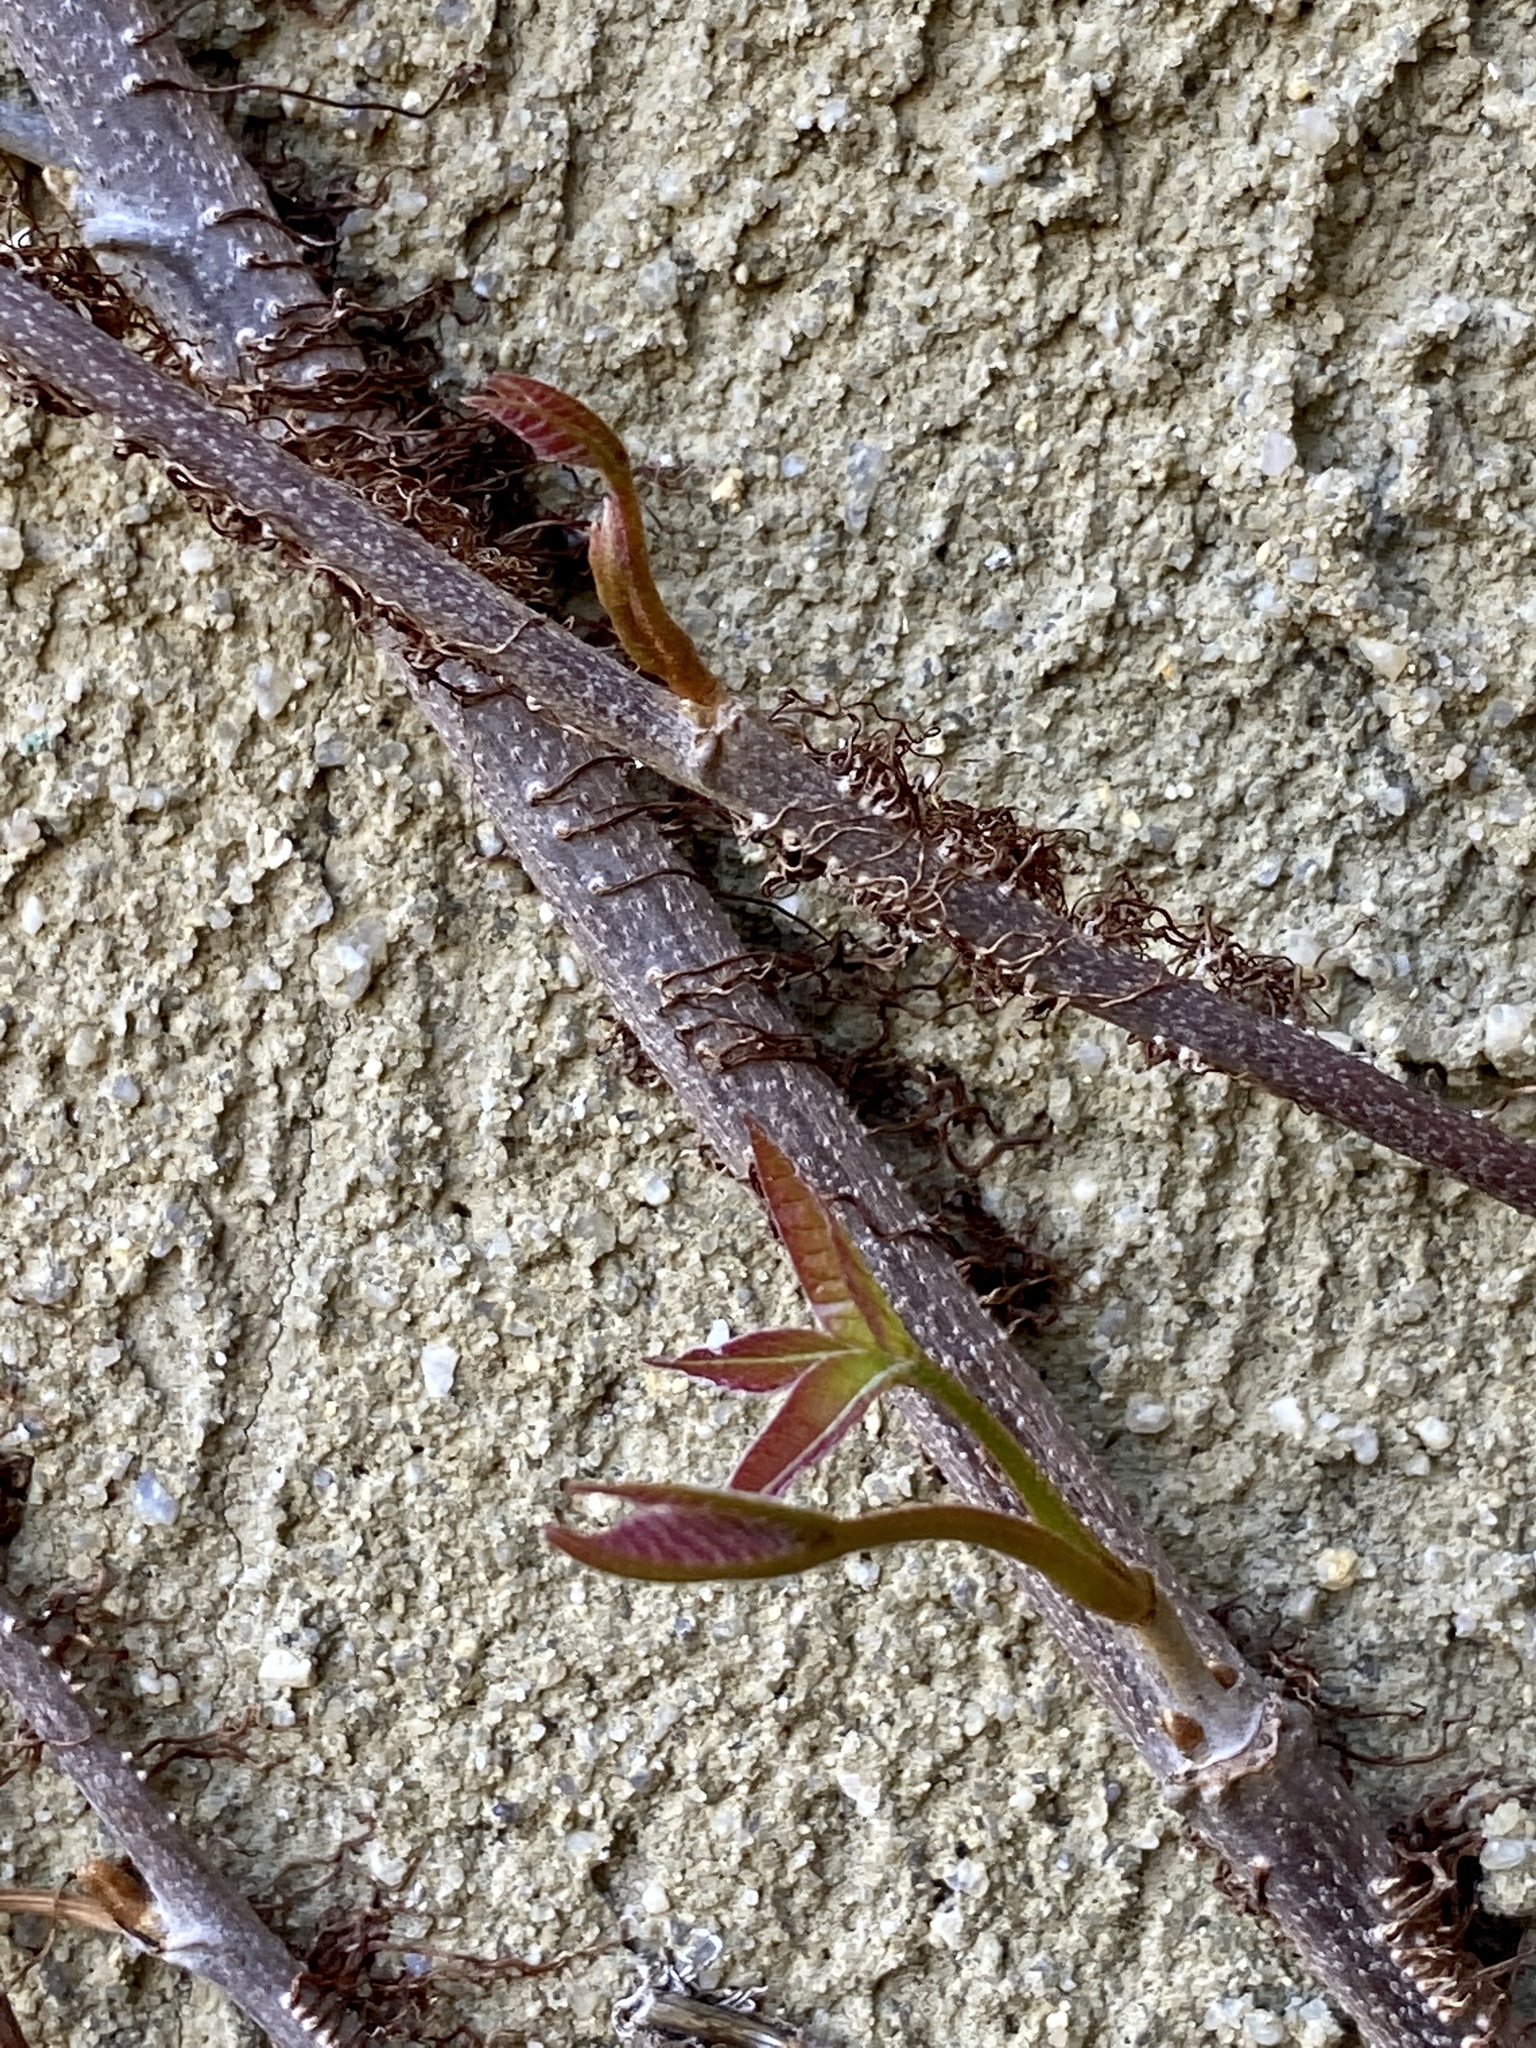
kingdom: Plantae
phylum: Tracheophyta
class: Magnoliopsida
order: Sapindales
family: Anacardiaceae
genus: Toxicodendron
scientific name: Toxicodendron radicans
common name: Poison ivy
